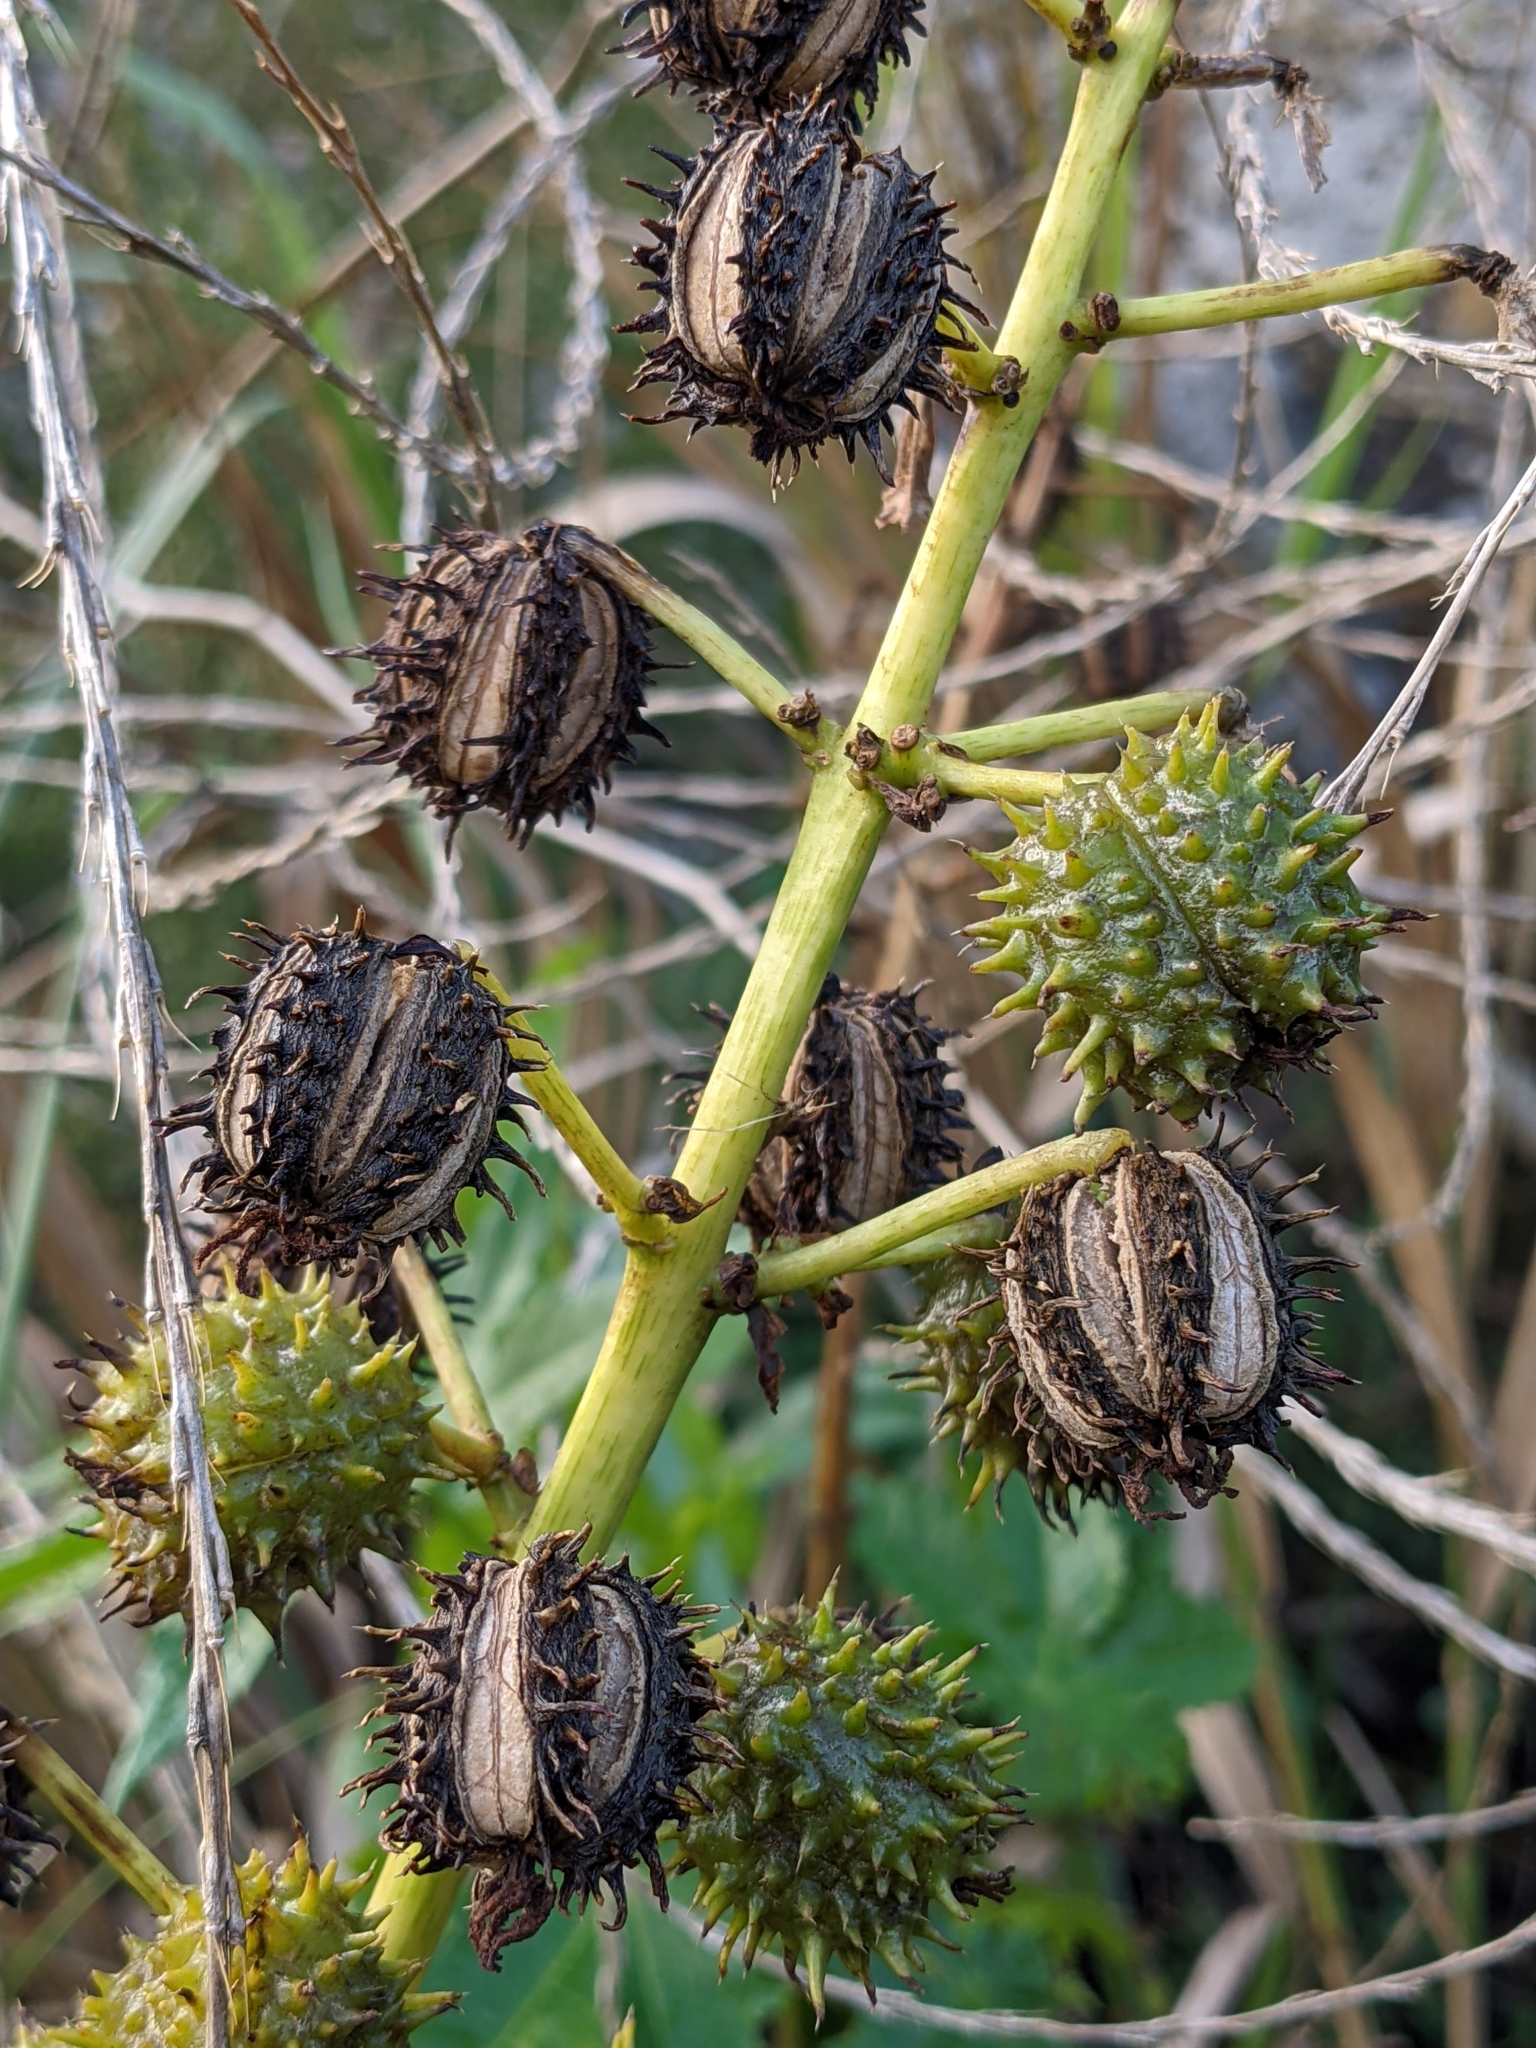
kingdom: Plantae
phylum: Tracheophyta
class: Magnoliopsida
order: Malpighiales
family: Euphorbiaceae
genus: Ricinus
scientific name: Ricinus communis
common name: Castor-oil-plant
